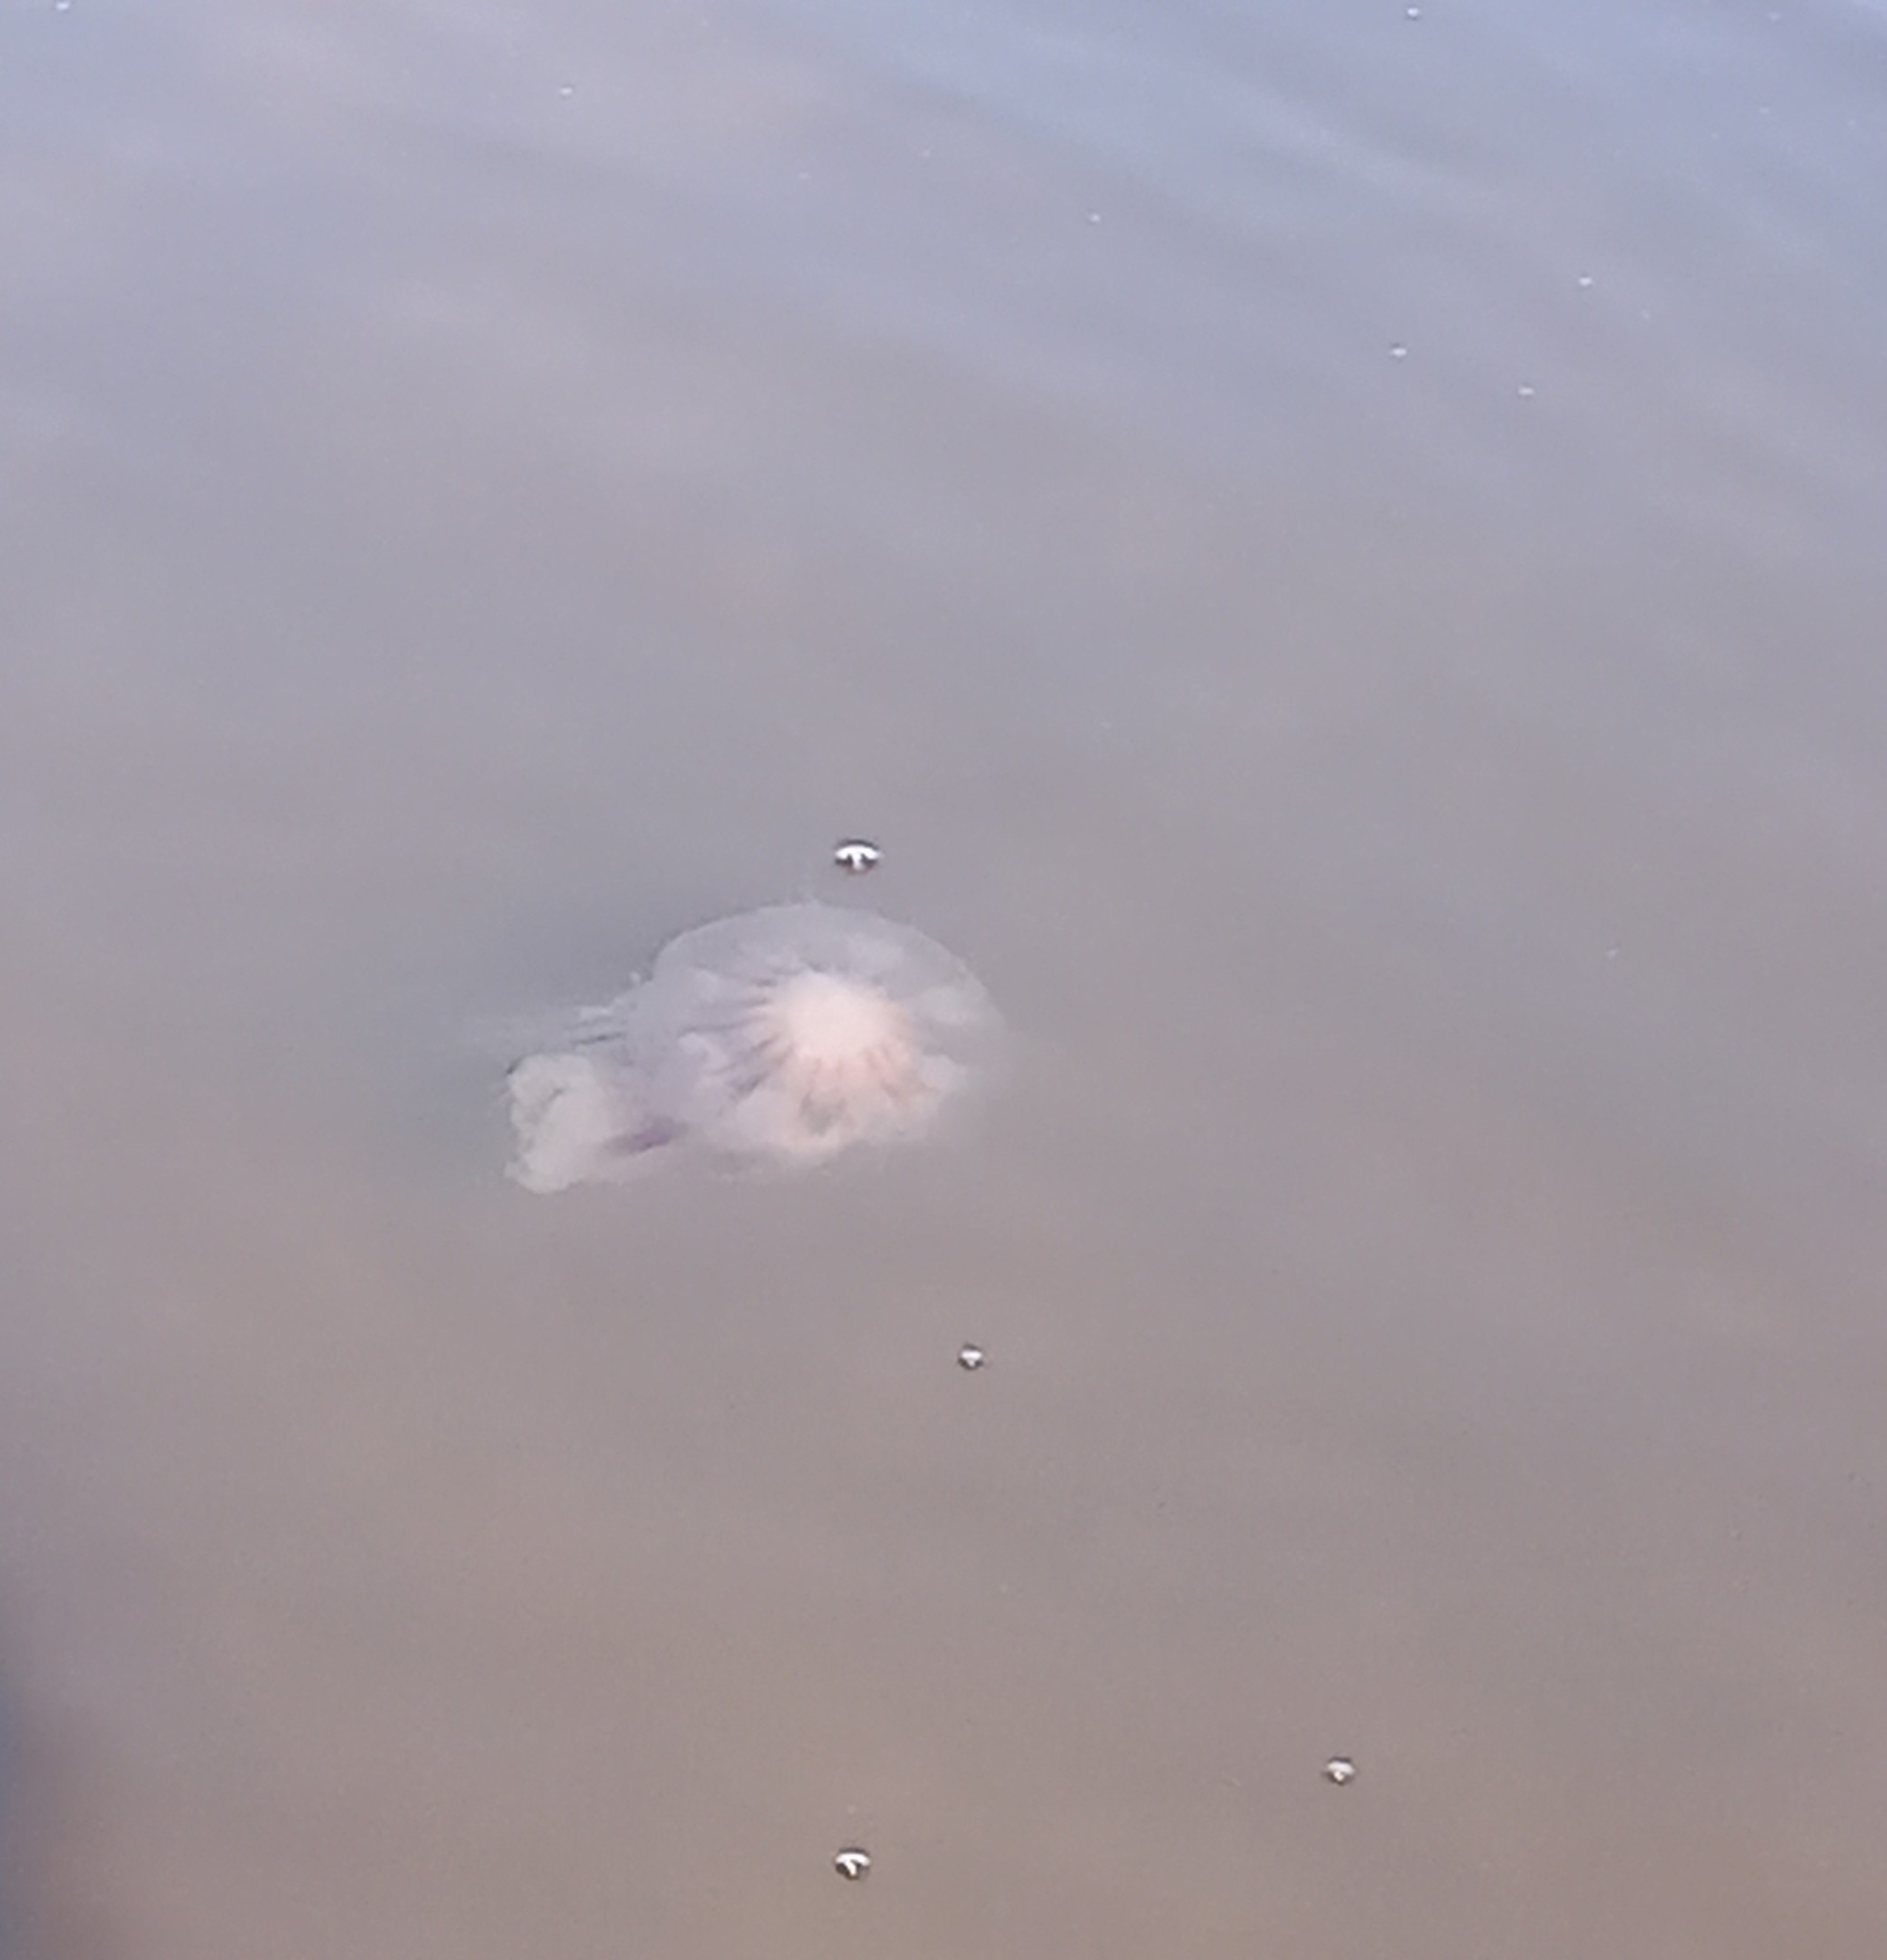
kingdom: Animalia
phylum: Cnidaria
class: Scyphozoa
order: Semaeostomeae
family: Cyaneidae
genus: Cyanea
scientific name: Cyanea versicolor
